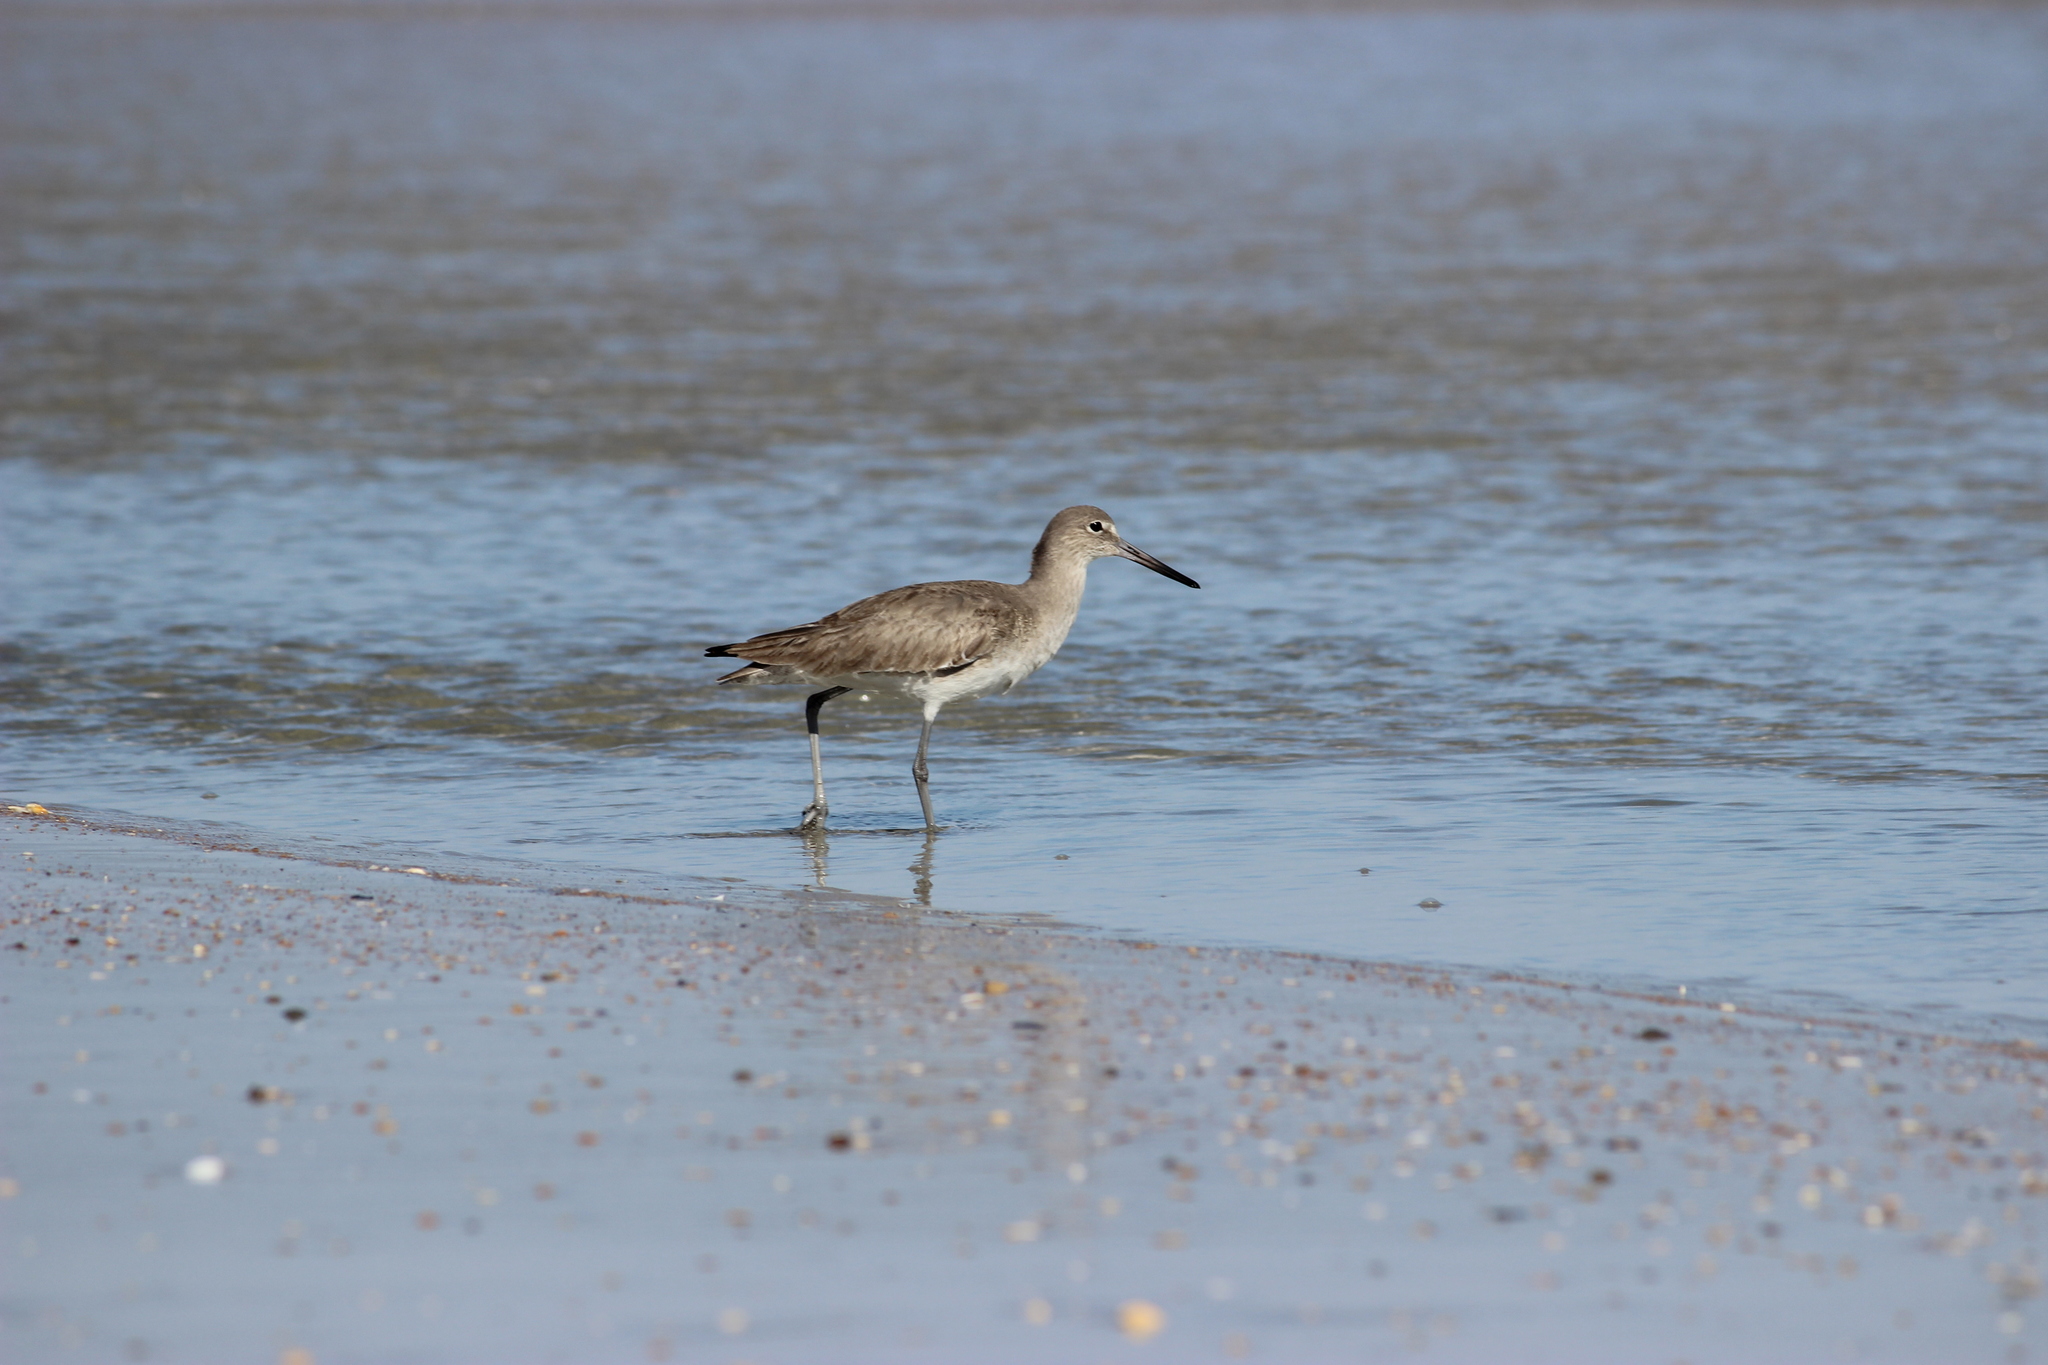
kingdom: Animalia
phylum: Chordata
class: Aves
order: Charadriiformes
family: Scolopacidae
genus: Tringa
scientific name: Tringa semipalmata
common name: Willet
